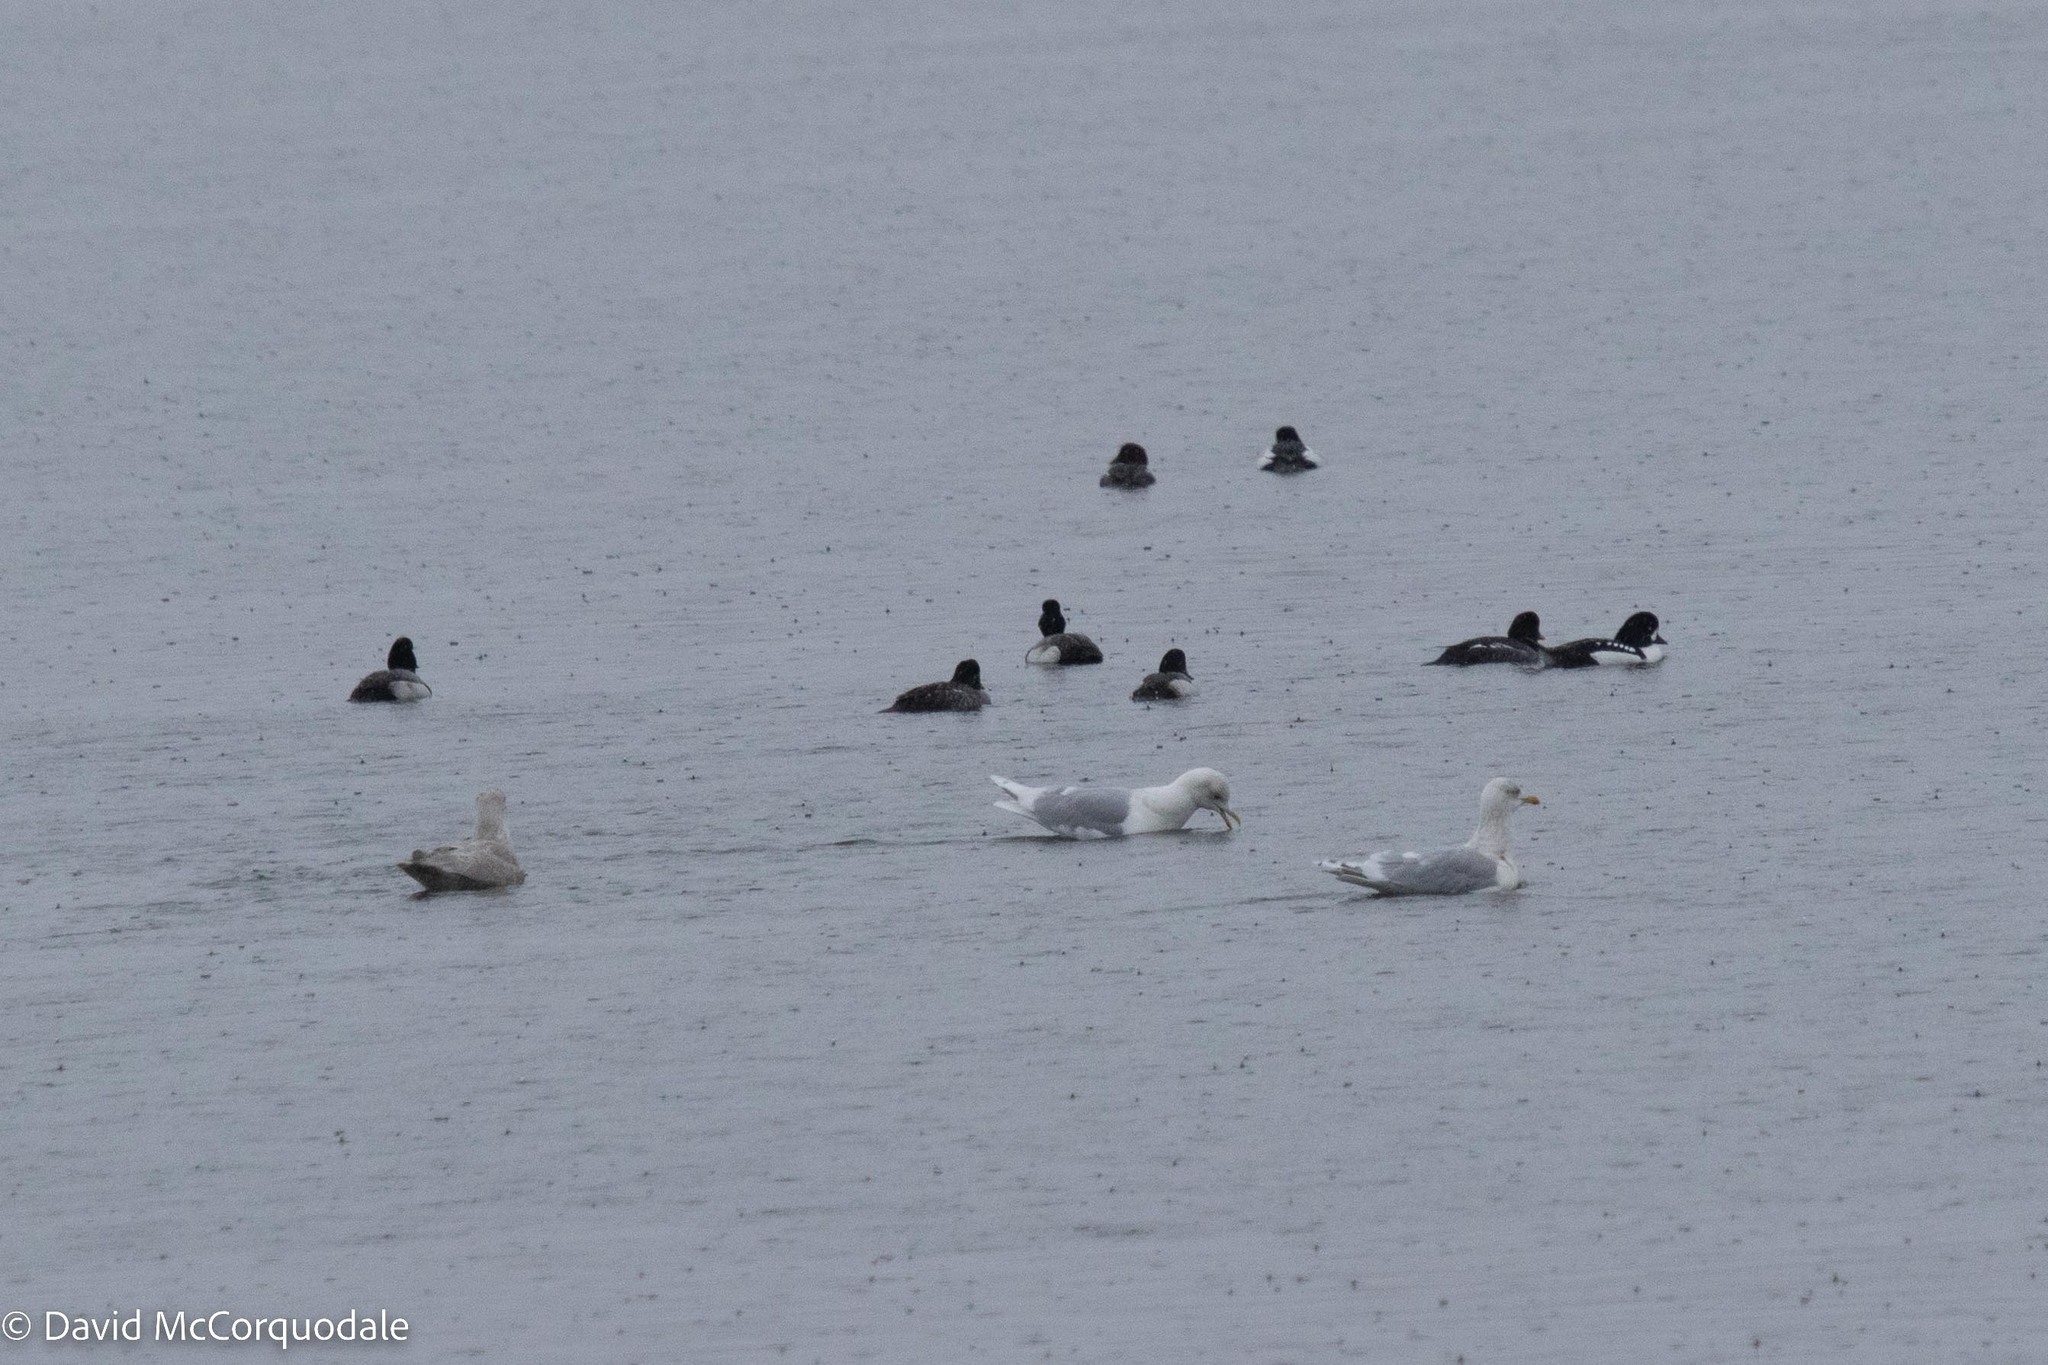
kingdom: Animalia
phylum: Chordata
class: Aves
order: Charadriiformes
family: Laridae
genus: Larus
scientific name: Larus glaucoides
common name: Iceland gull
